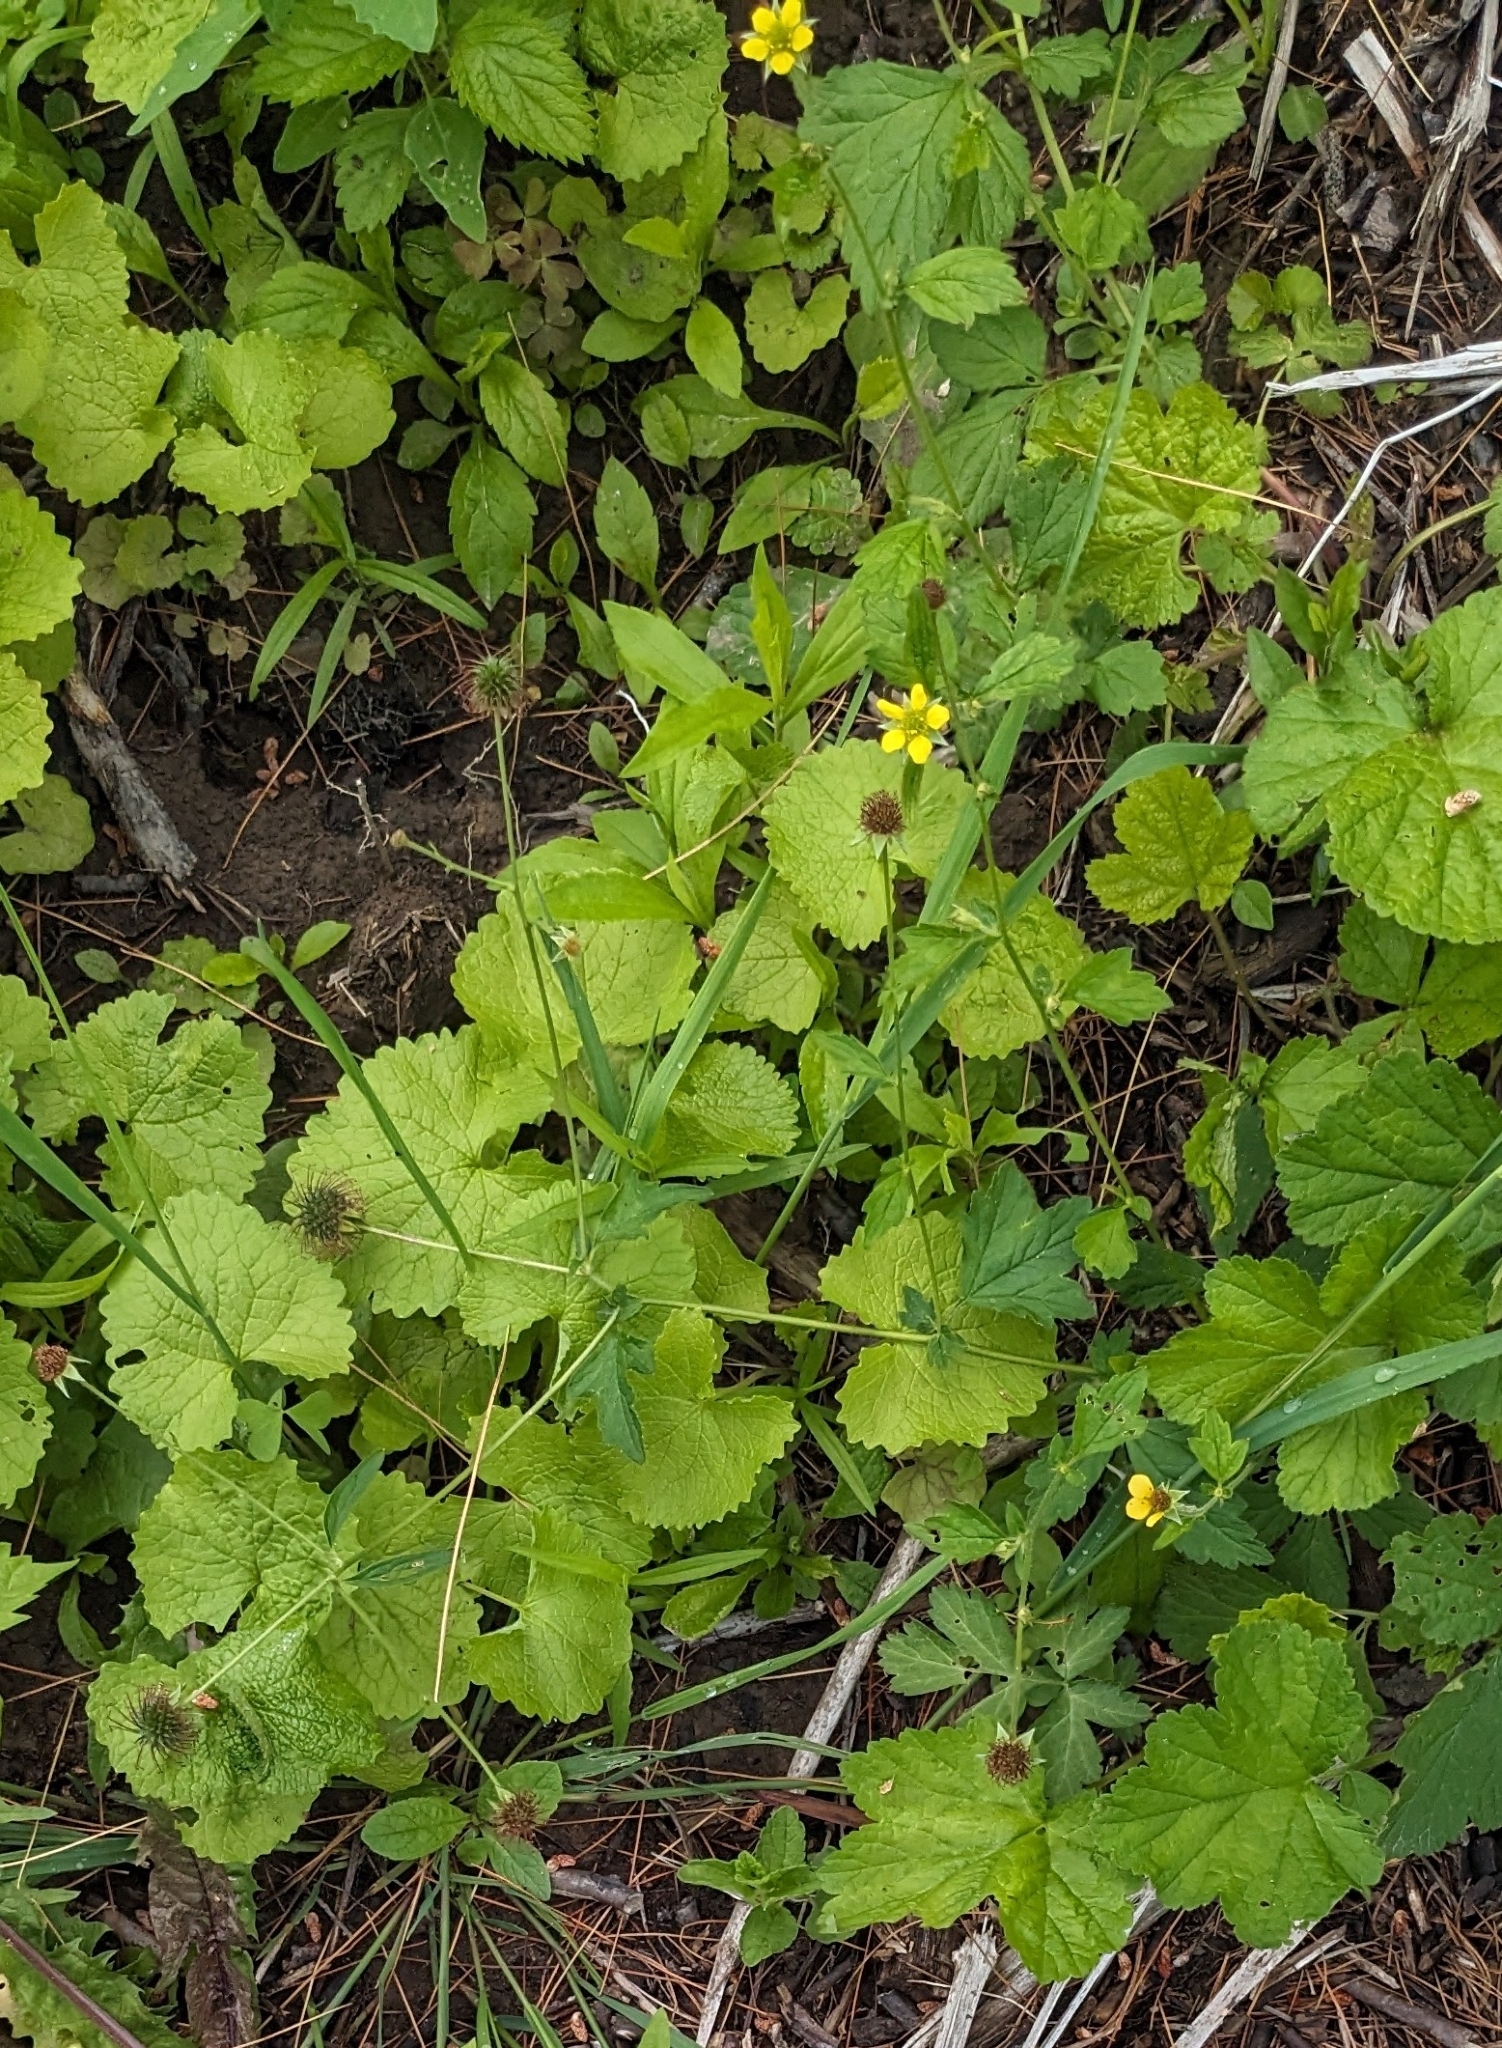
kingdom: Plantae
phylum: Tracheophyta
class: Magnoliopsida
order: Rosales
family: Rosaceae
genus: Geum
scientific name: Geum urbanum
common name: Wood avens
